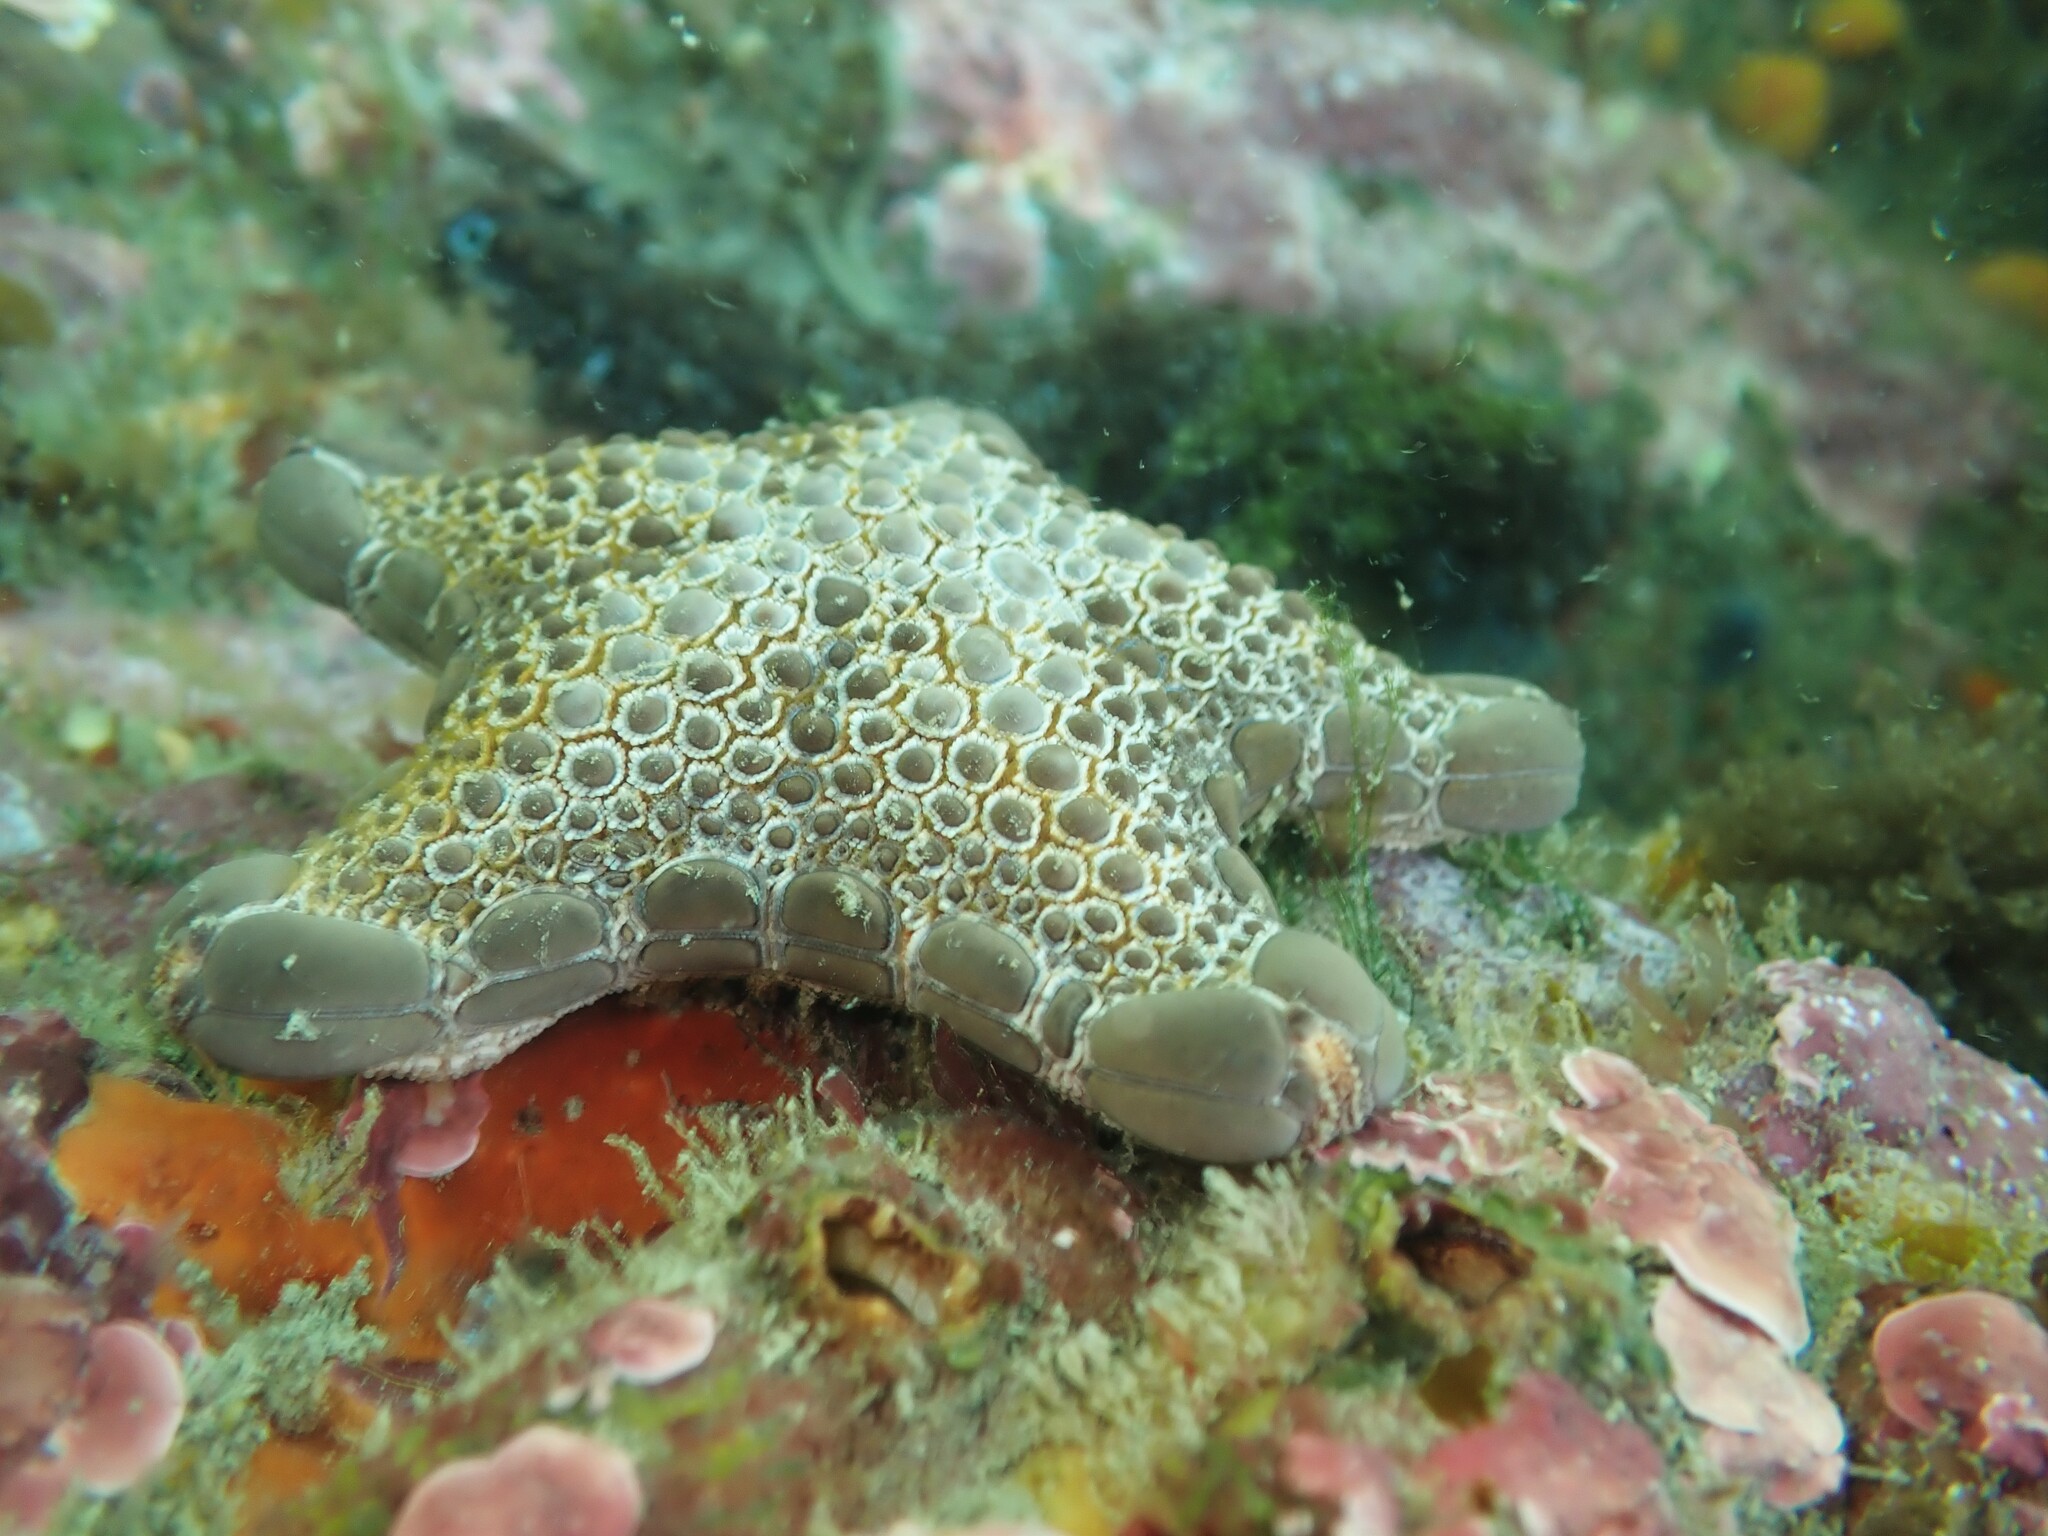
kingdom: Animalia
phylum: Echinodermata
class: Asteroidea
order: Valvatida
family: Goniasteridae
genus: Pentagonaster
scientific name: Pentagonaster pulchellus
